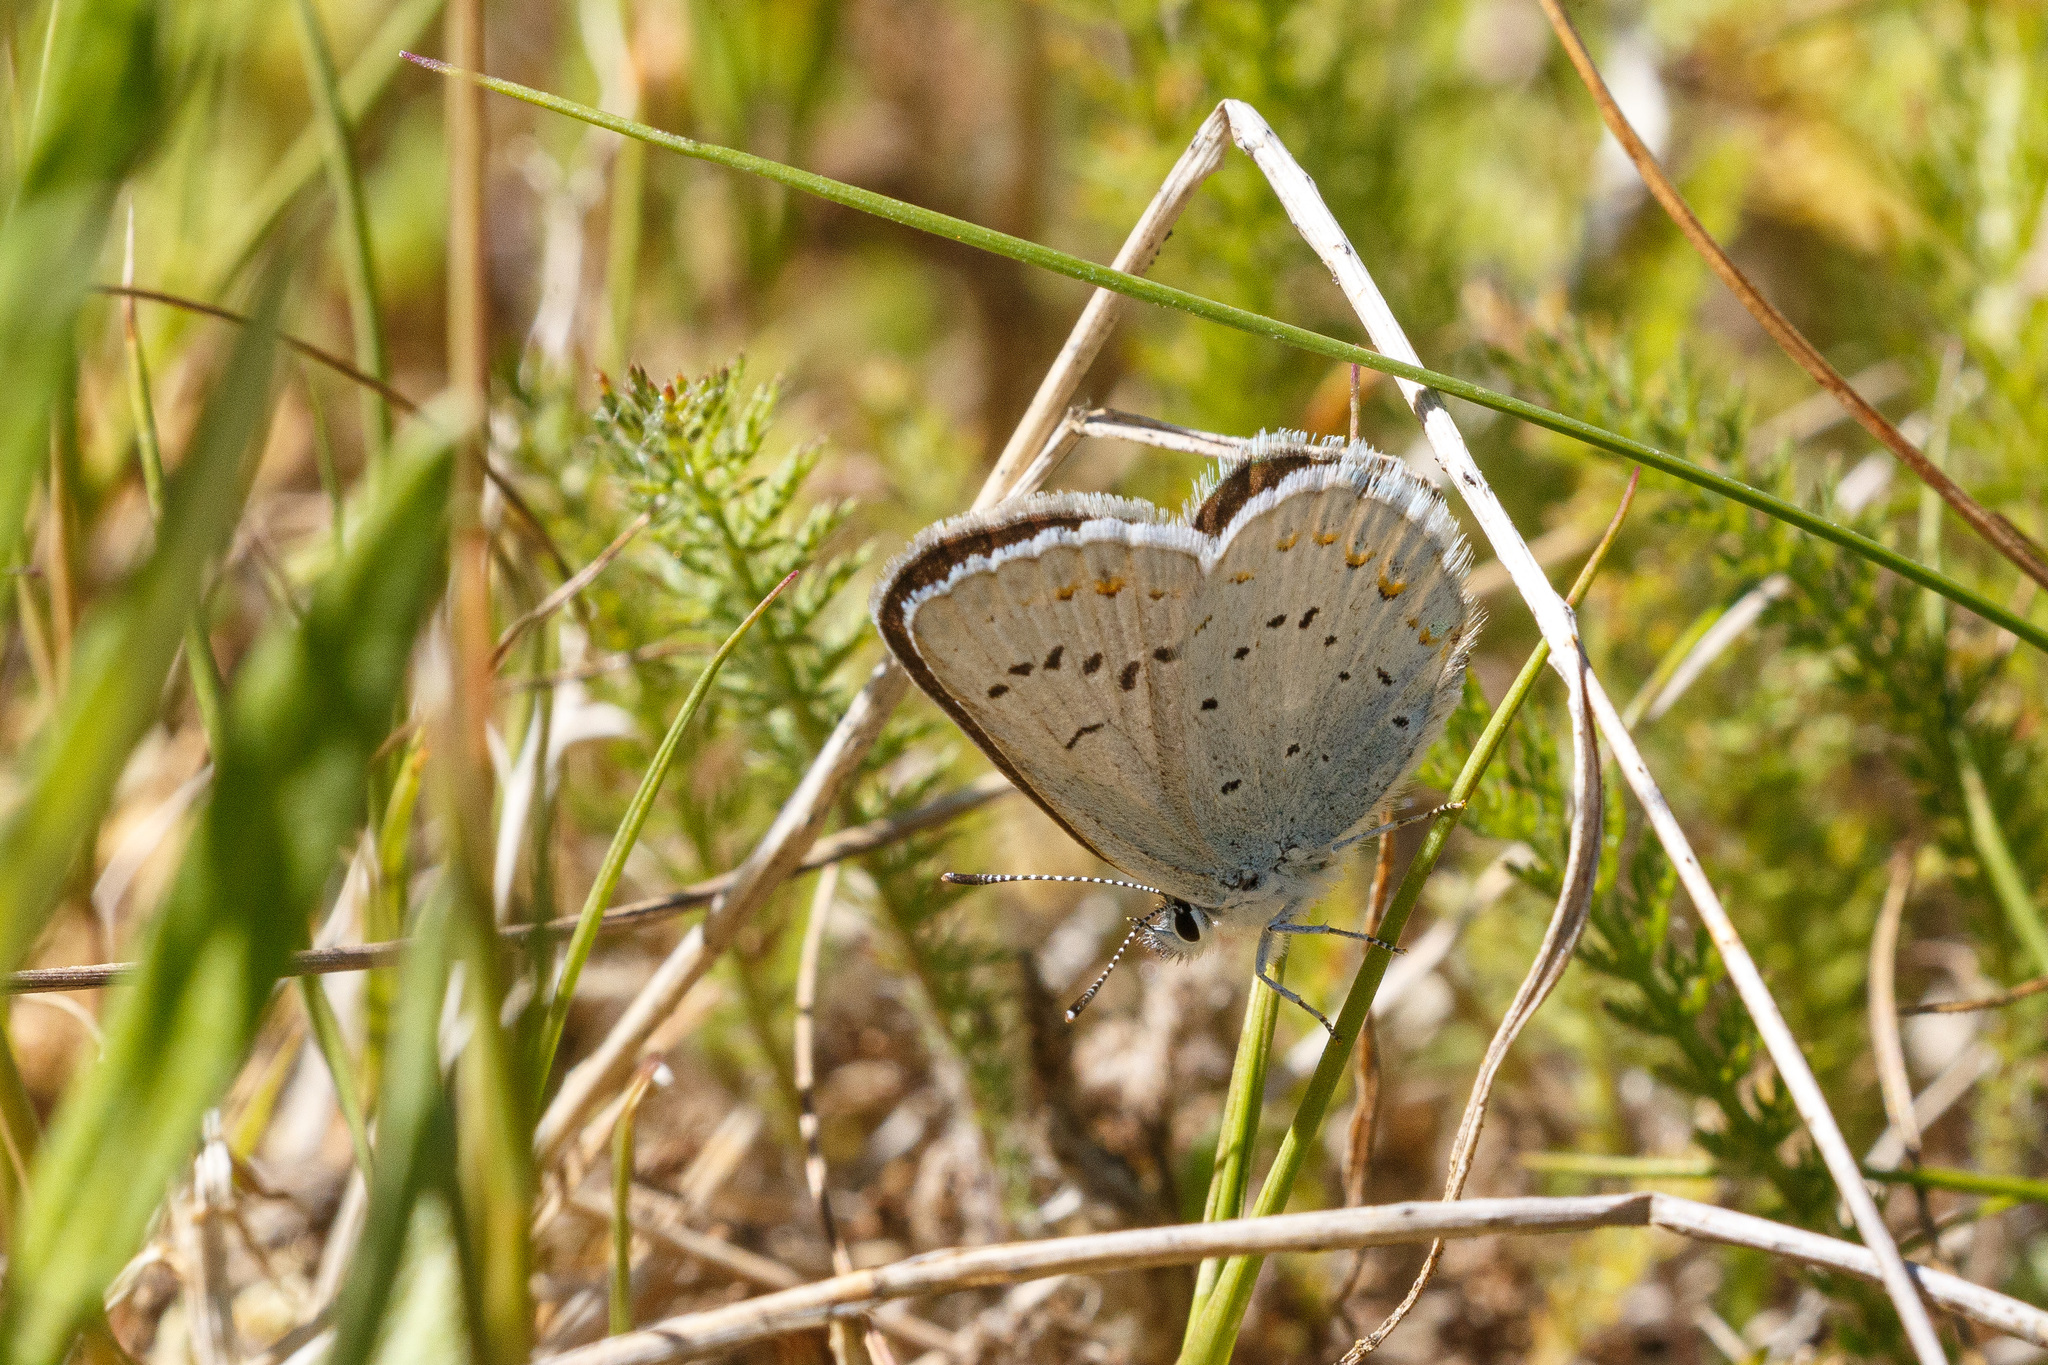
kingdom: Animalia
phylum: Arthropoda
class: Insecta
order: Lepidoptera
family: Lycaenidae
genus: Lycaeides
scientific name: Lycaeides anna
